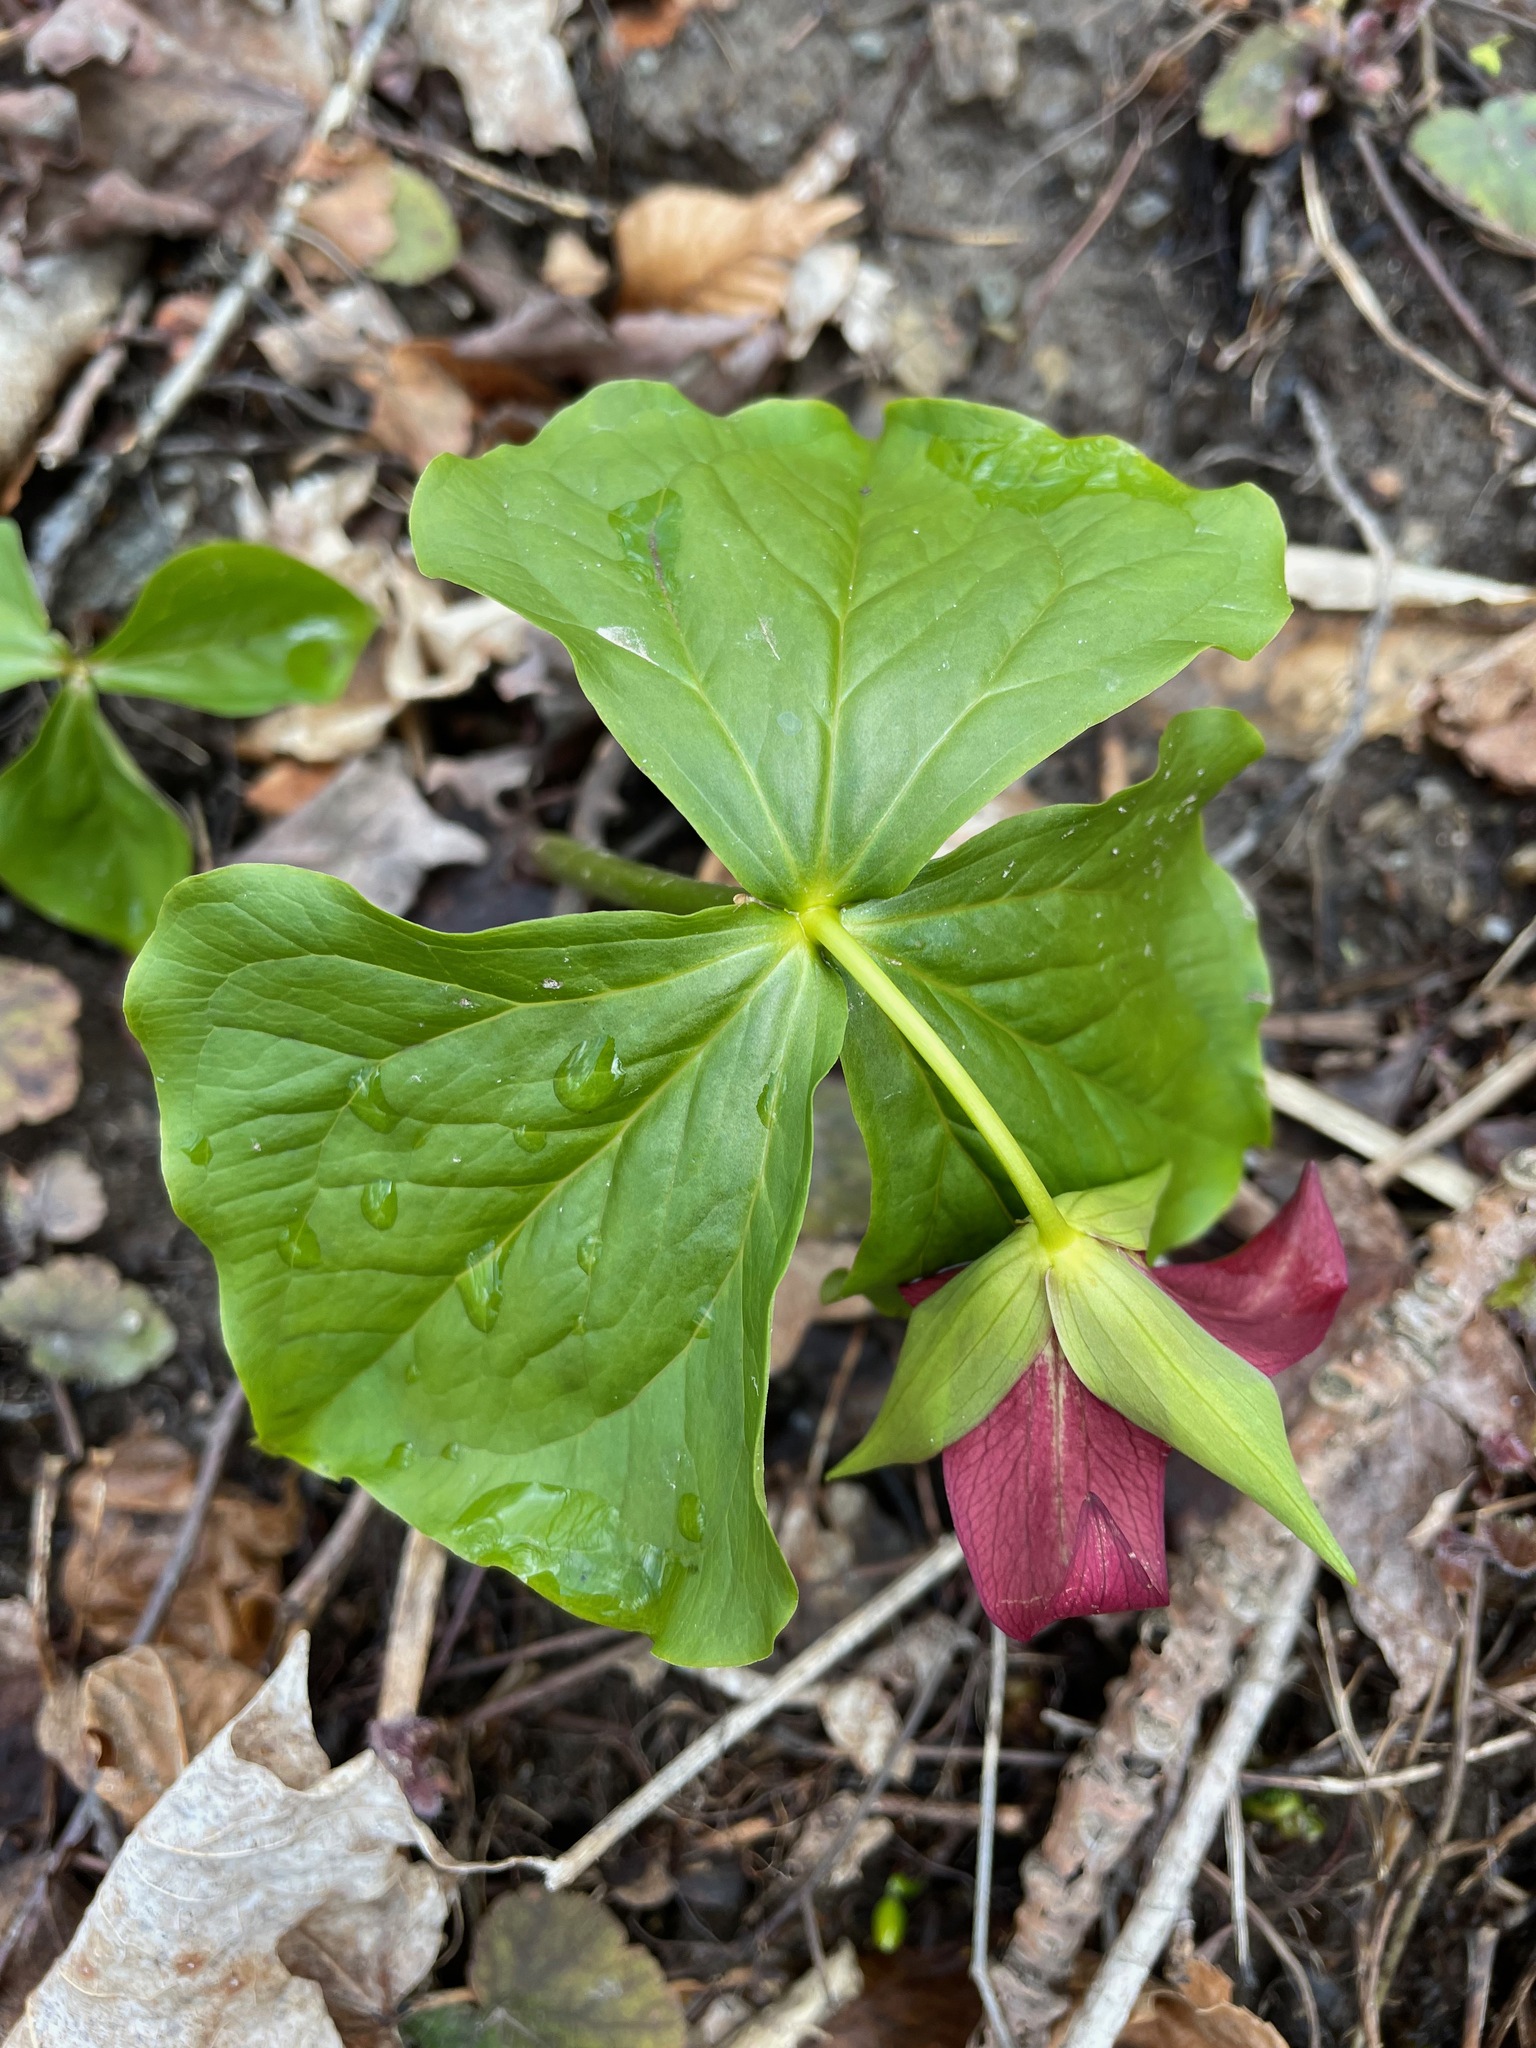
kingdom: Plantae
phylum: Tracheophyta
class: Liliopsida
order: Liliales
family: Melanthiaceae
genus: Trillium
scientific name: Trillium erectum
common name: Purple trillium
